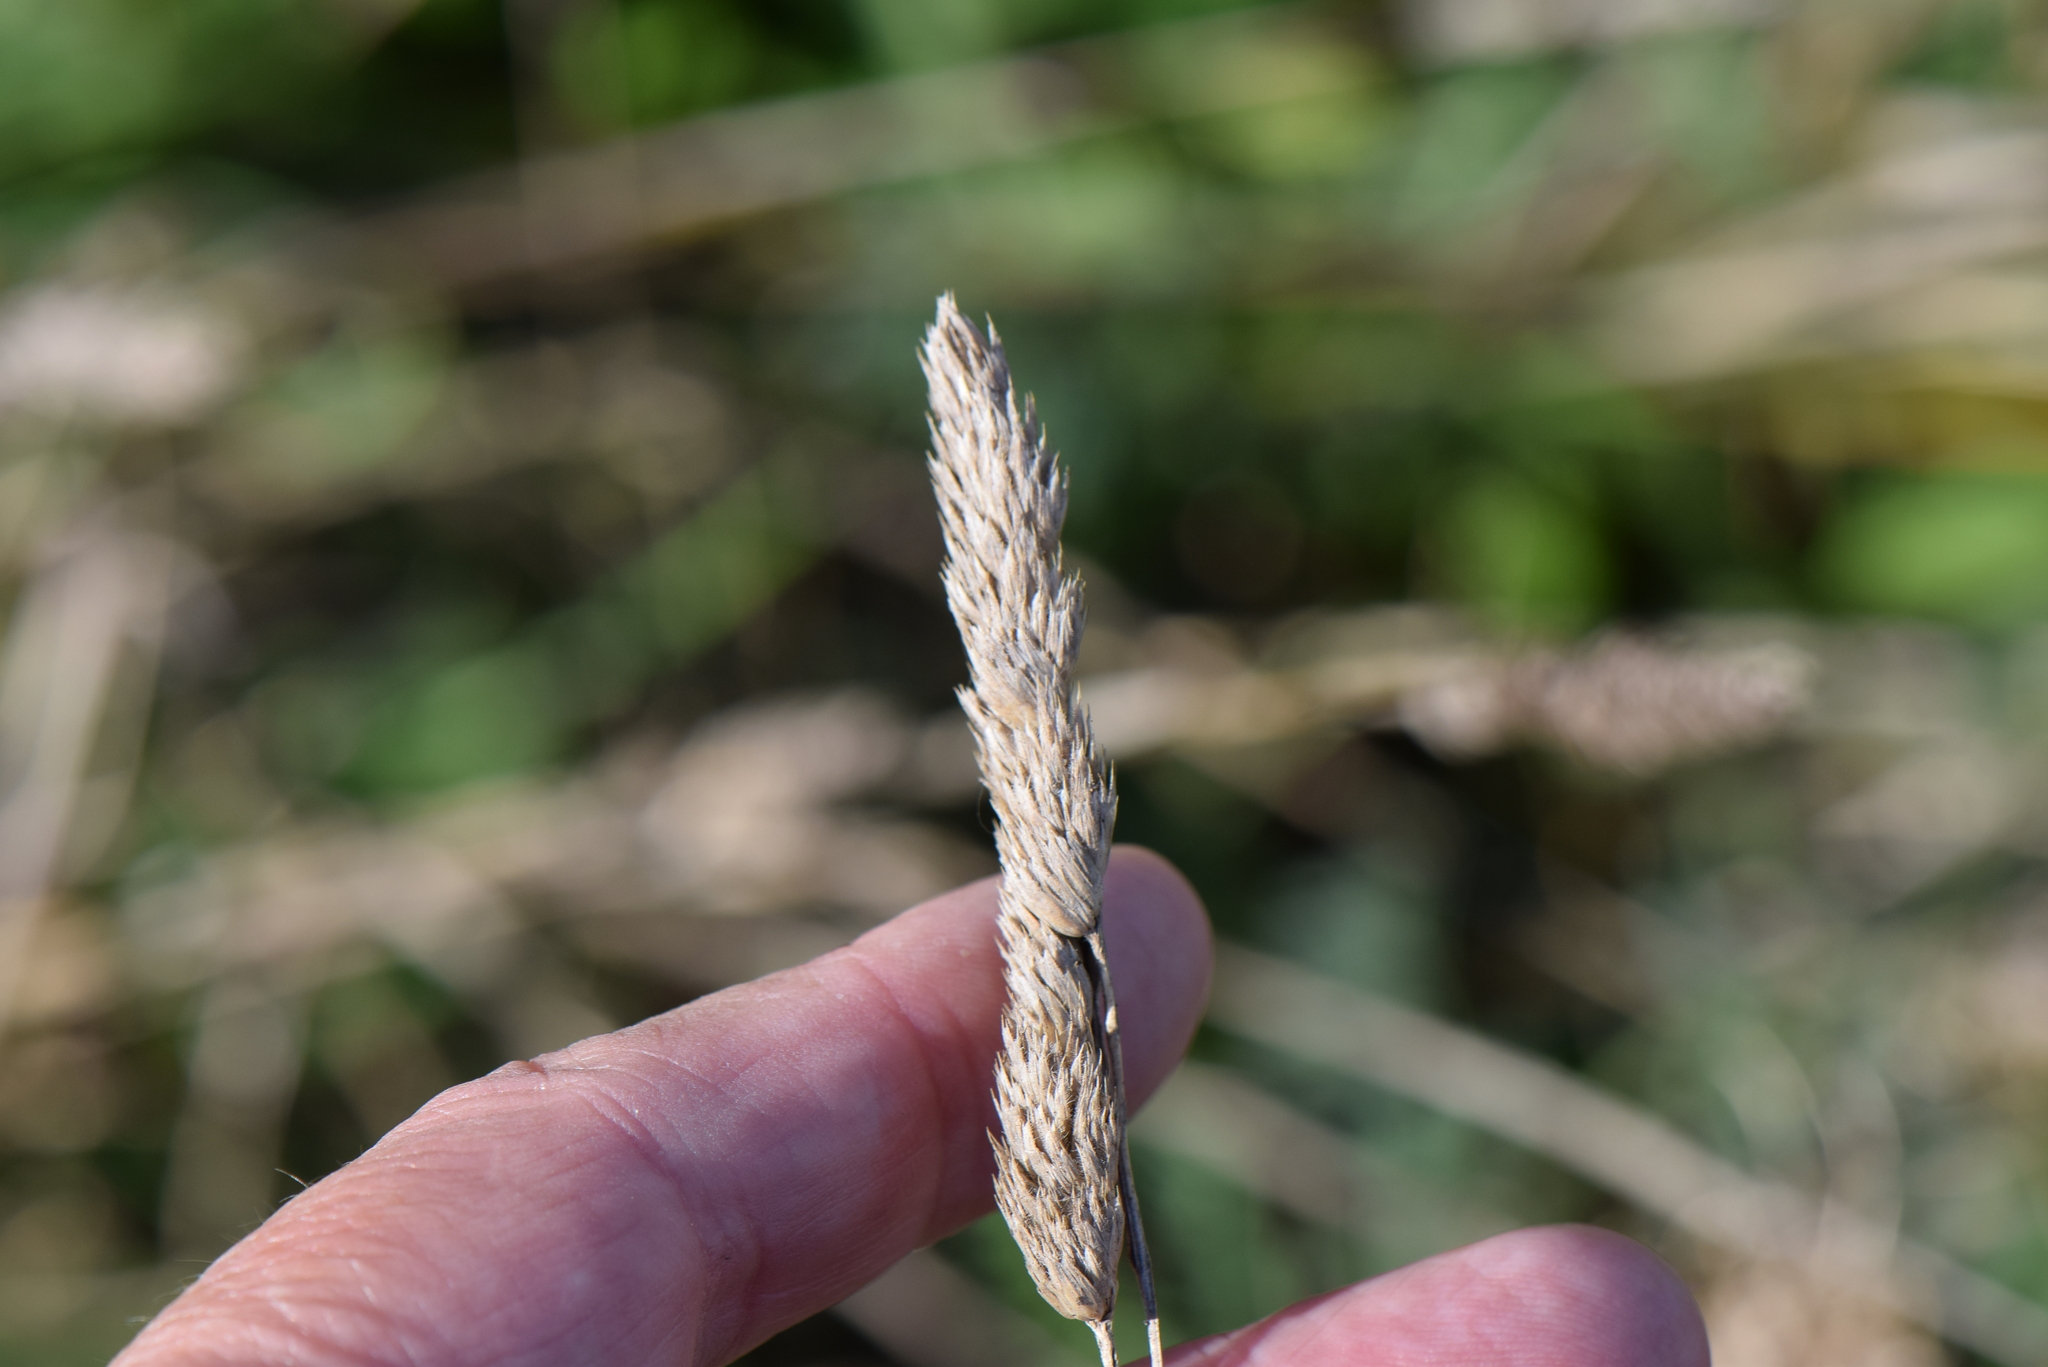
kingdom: Plantae
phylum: Tracheophyta
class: Liliopsida
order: Poales
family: Poaceae
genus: Dactylis
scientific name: Dactylis glomerata
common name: Orchardgrass
